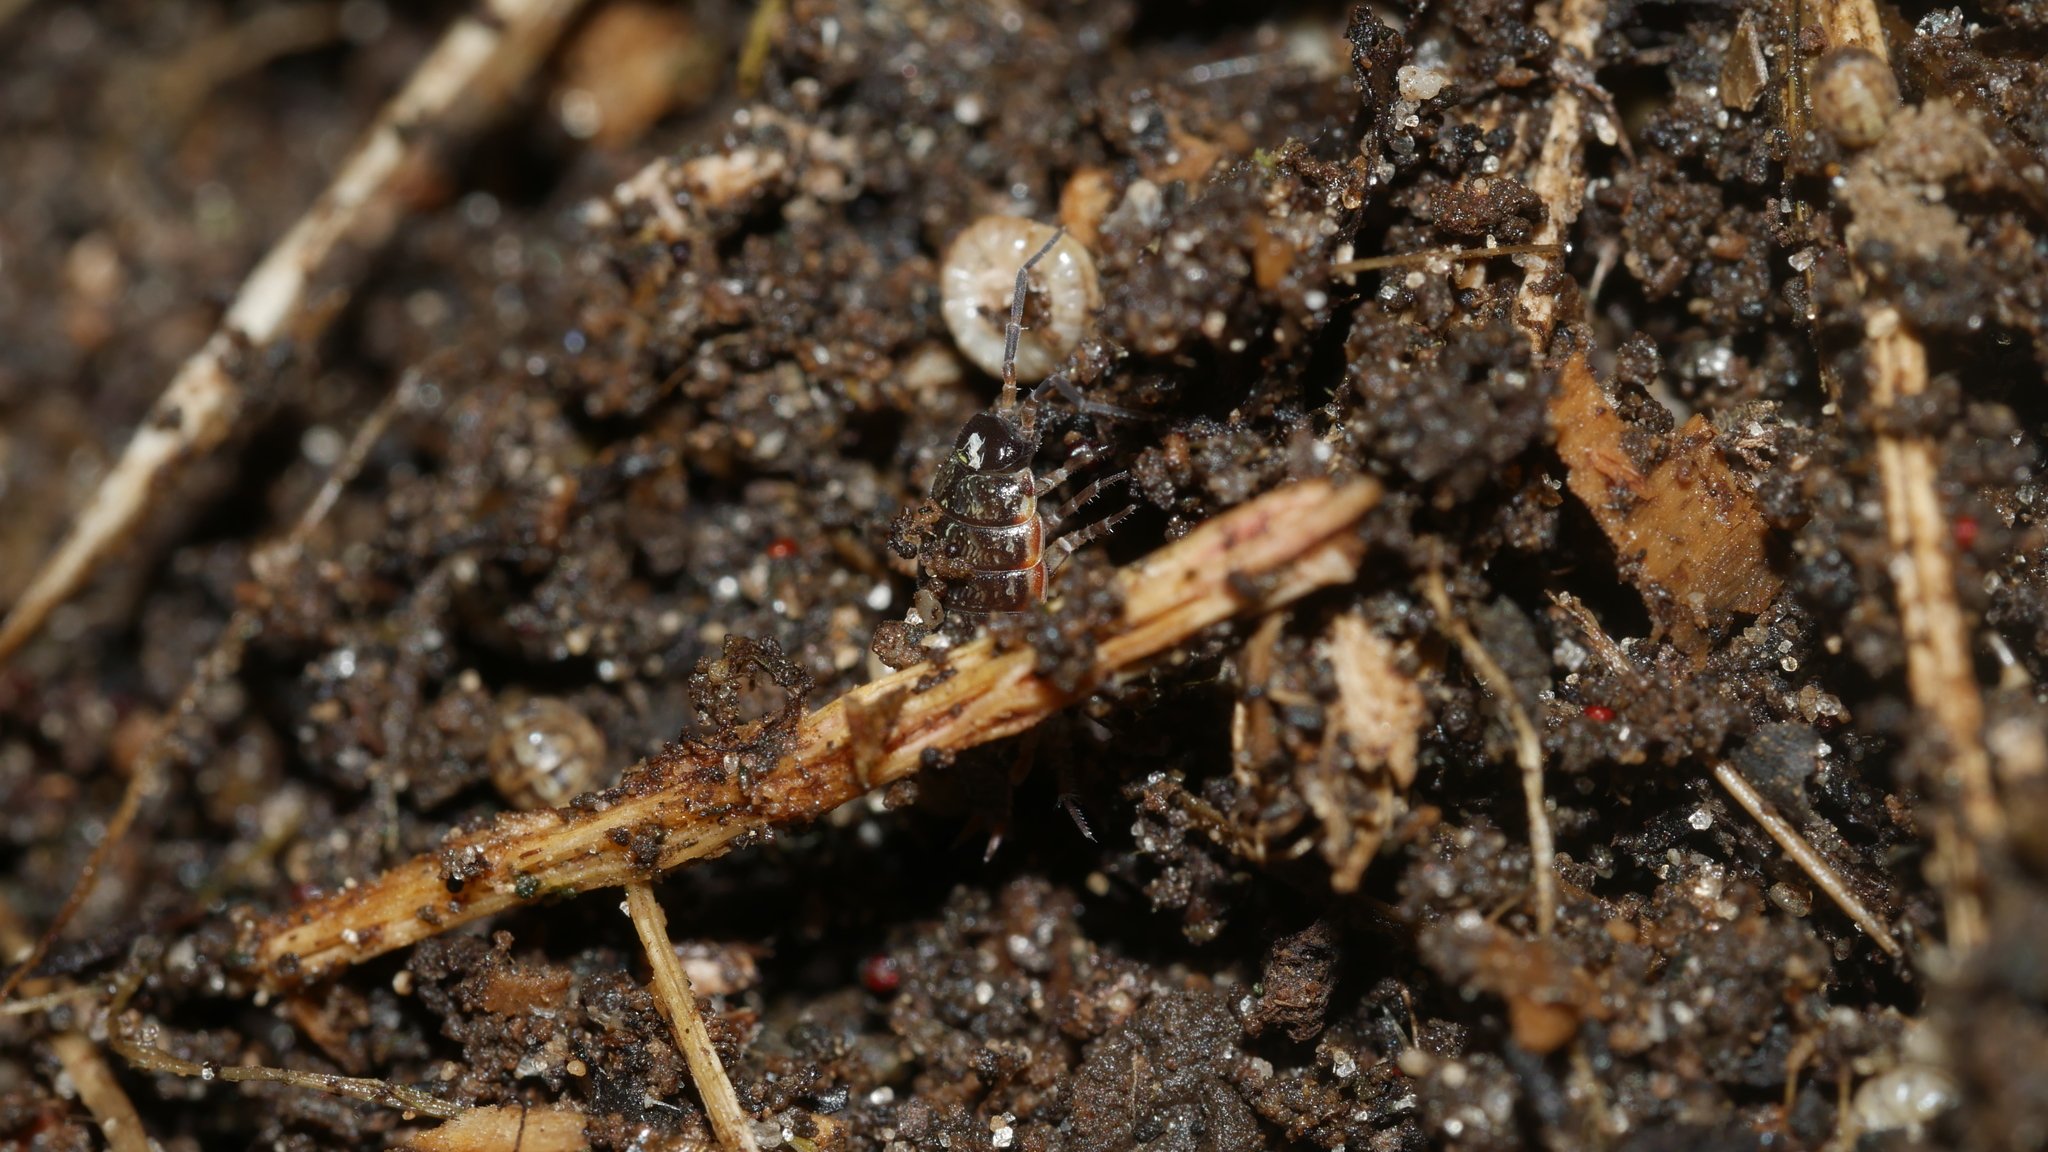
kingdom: Animalia
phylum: Arthropoda
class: Malacostraca
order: Isopoda
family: Philosciidae
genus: Philoscia
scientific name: Philoscia muscorum
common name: Common striped woodlouse
